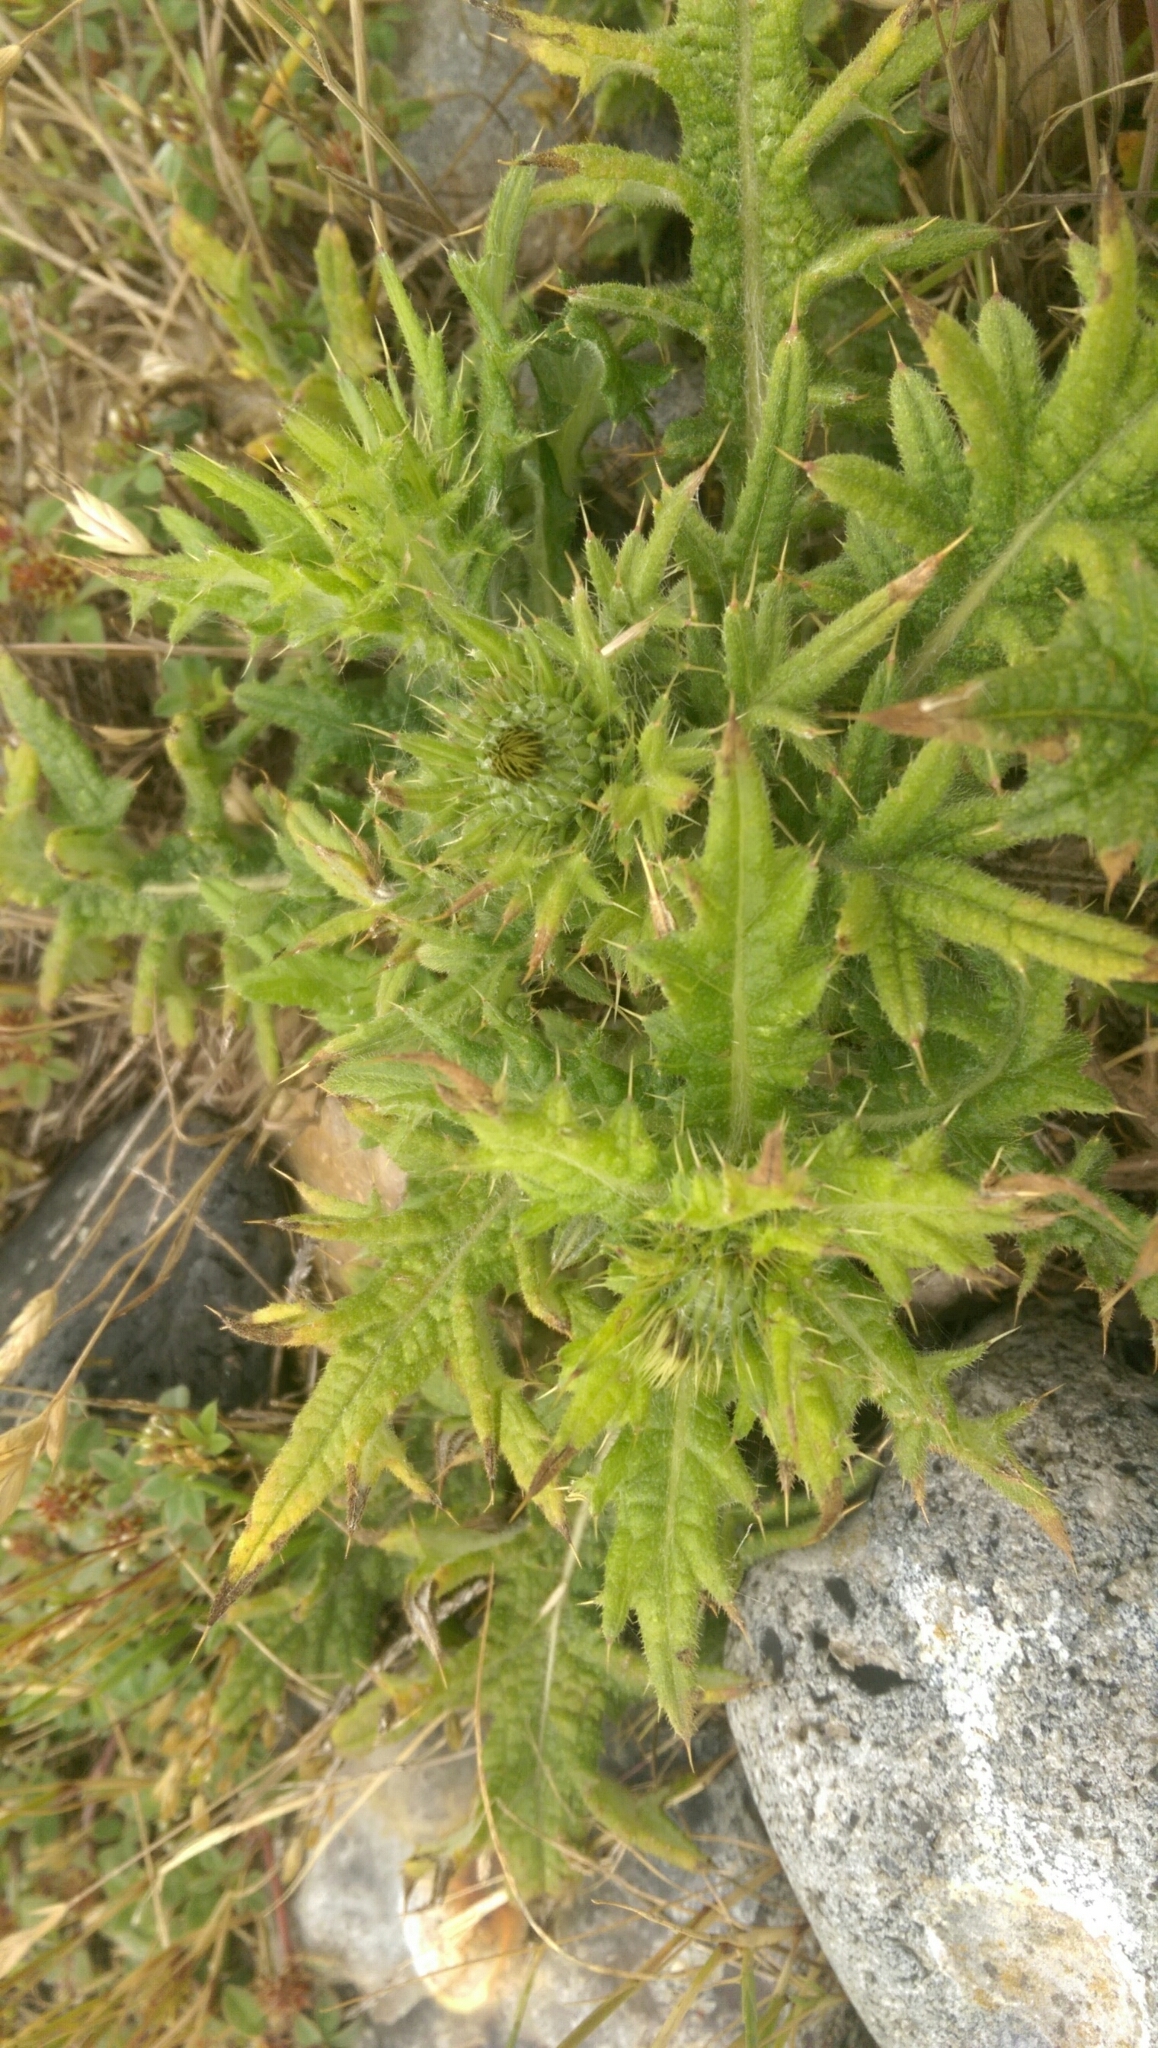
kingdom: Plantae
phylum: Tracheophyta
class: Magnoliopsida
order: Asterales
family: Asteraceae
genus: Cirsium
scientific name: Cirsium vulgare
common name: Bull thistle
